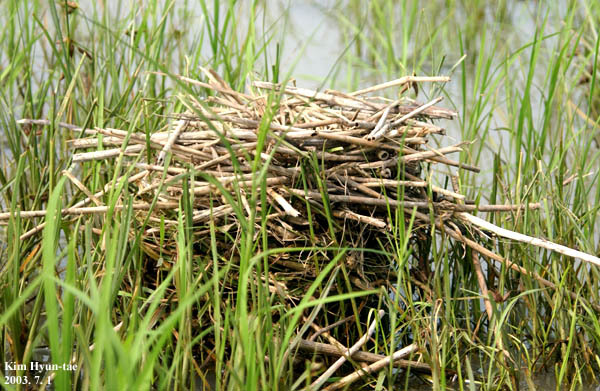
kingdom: Animalia
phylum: Chordata
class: Aves
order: Gruiformes
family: Rallidae
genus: Gallinula
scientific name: Gallinula chloropus
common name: Common moorhen
